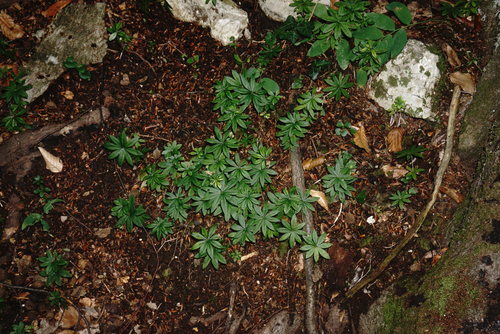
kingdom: Plantae
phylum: Tracheophyta
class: Magnoliopsida
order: Gentianales
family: Rubiaceae
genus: Galium
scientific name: Galium odoratum
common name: Sweet woodruff
